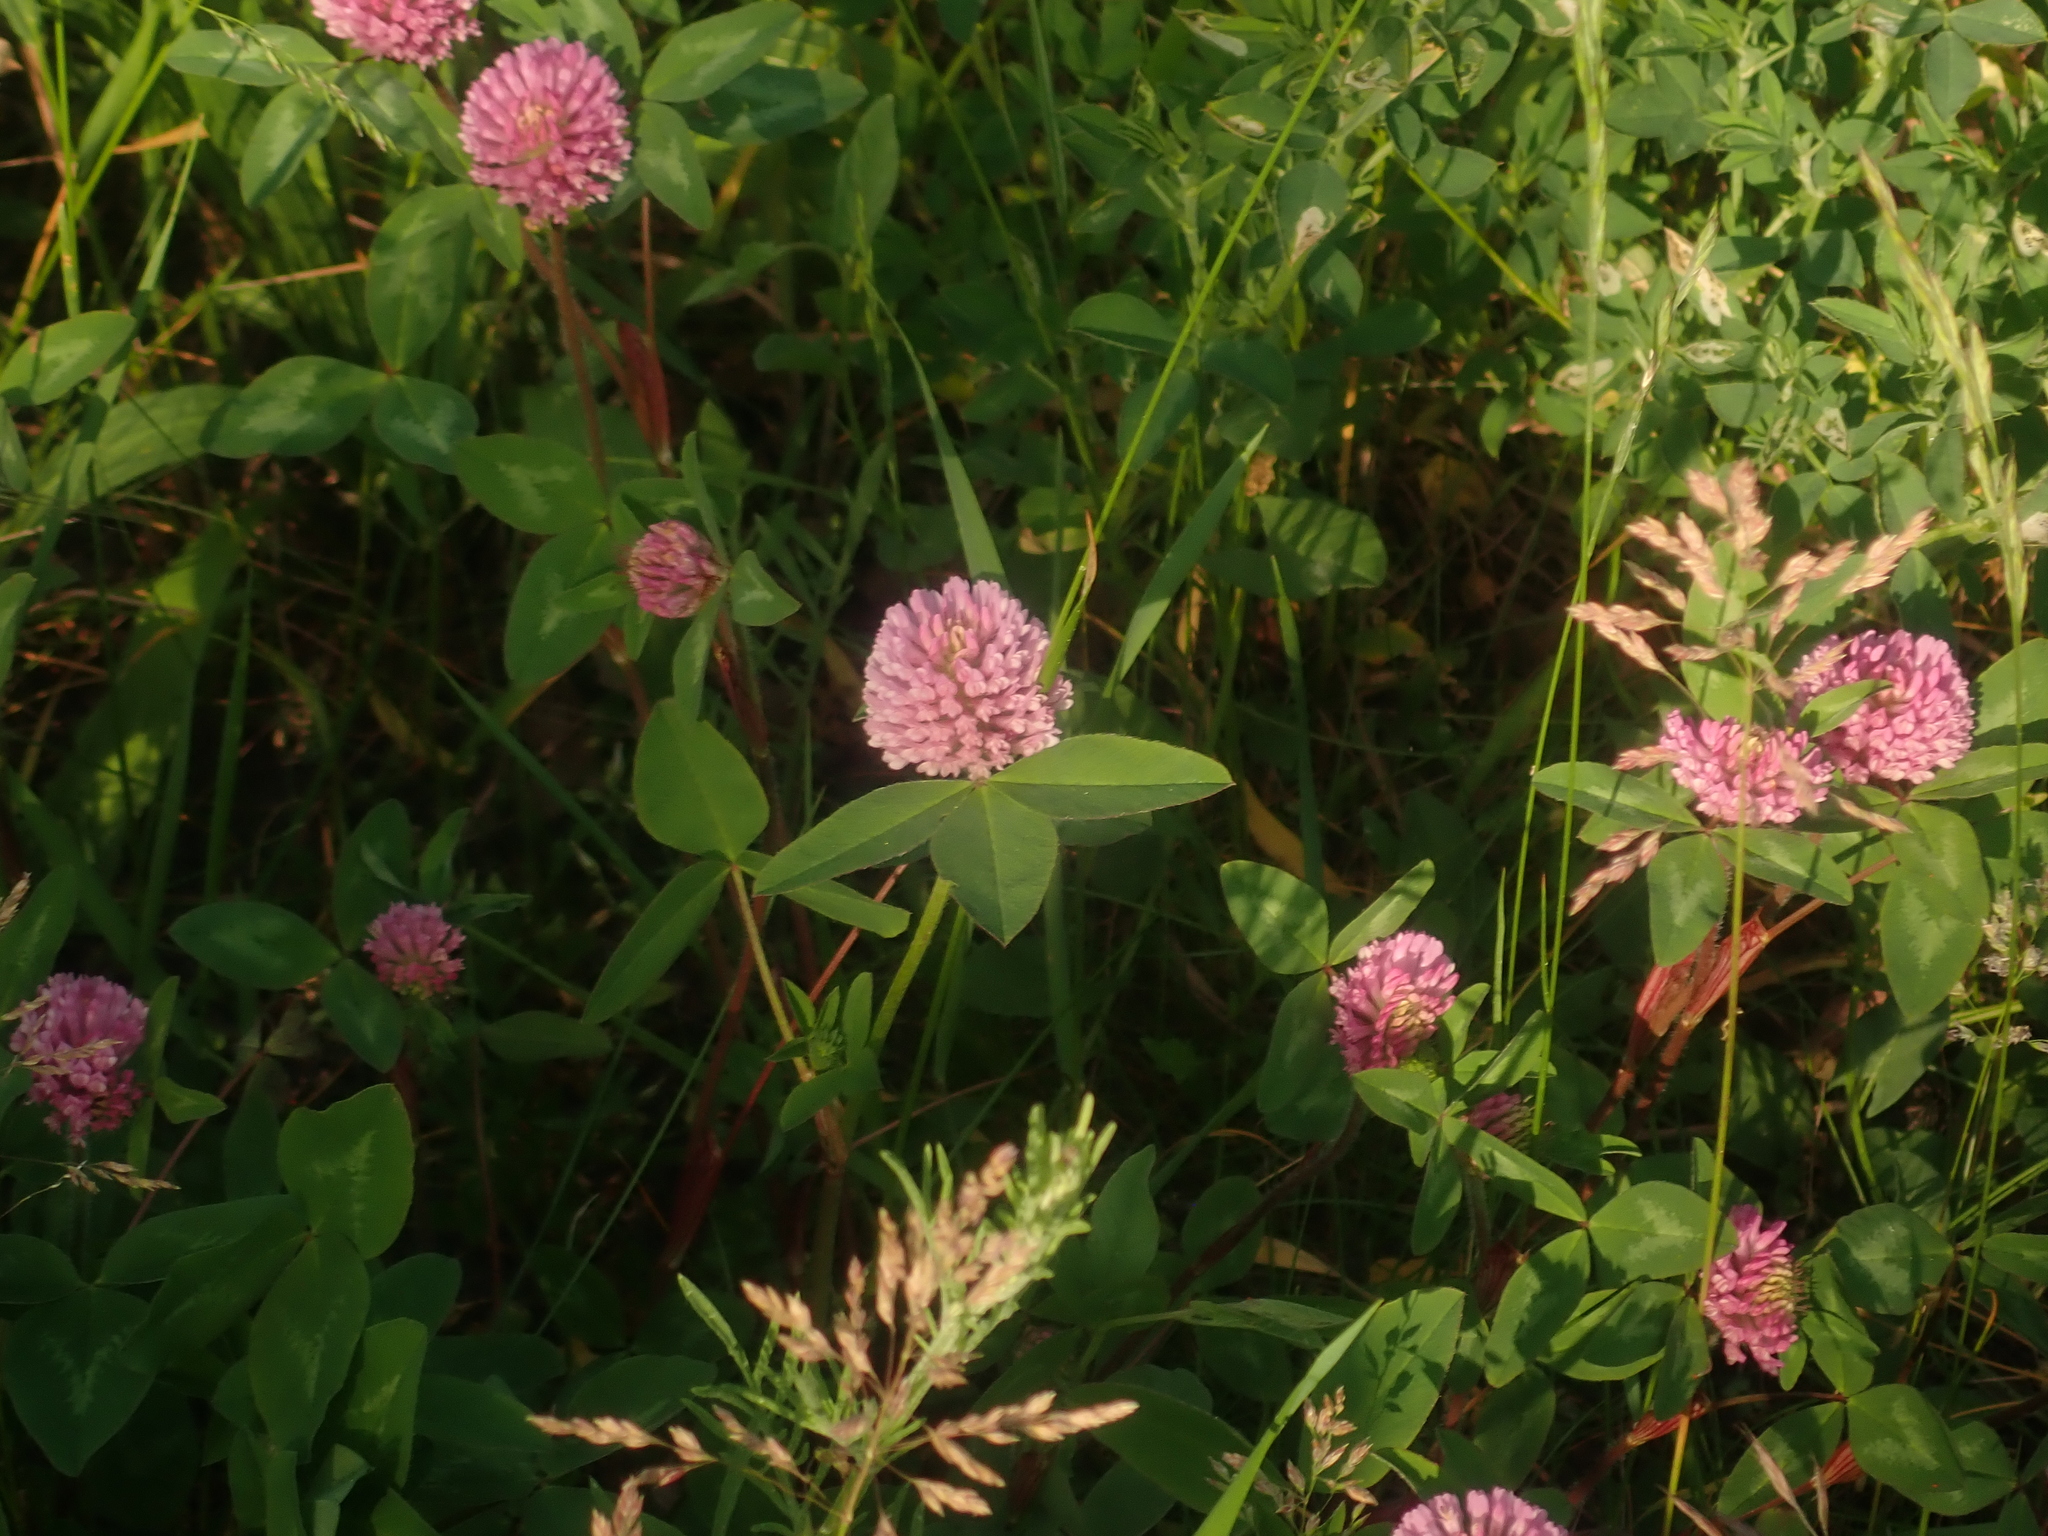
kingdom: Plantae
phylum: Tracheophyta
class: Magnoliopsida
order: Fabales
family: Fabaceae
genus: Trifolium
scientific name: Trifolium pratense
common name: Red clover
